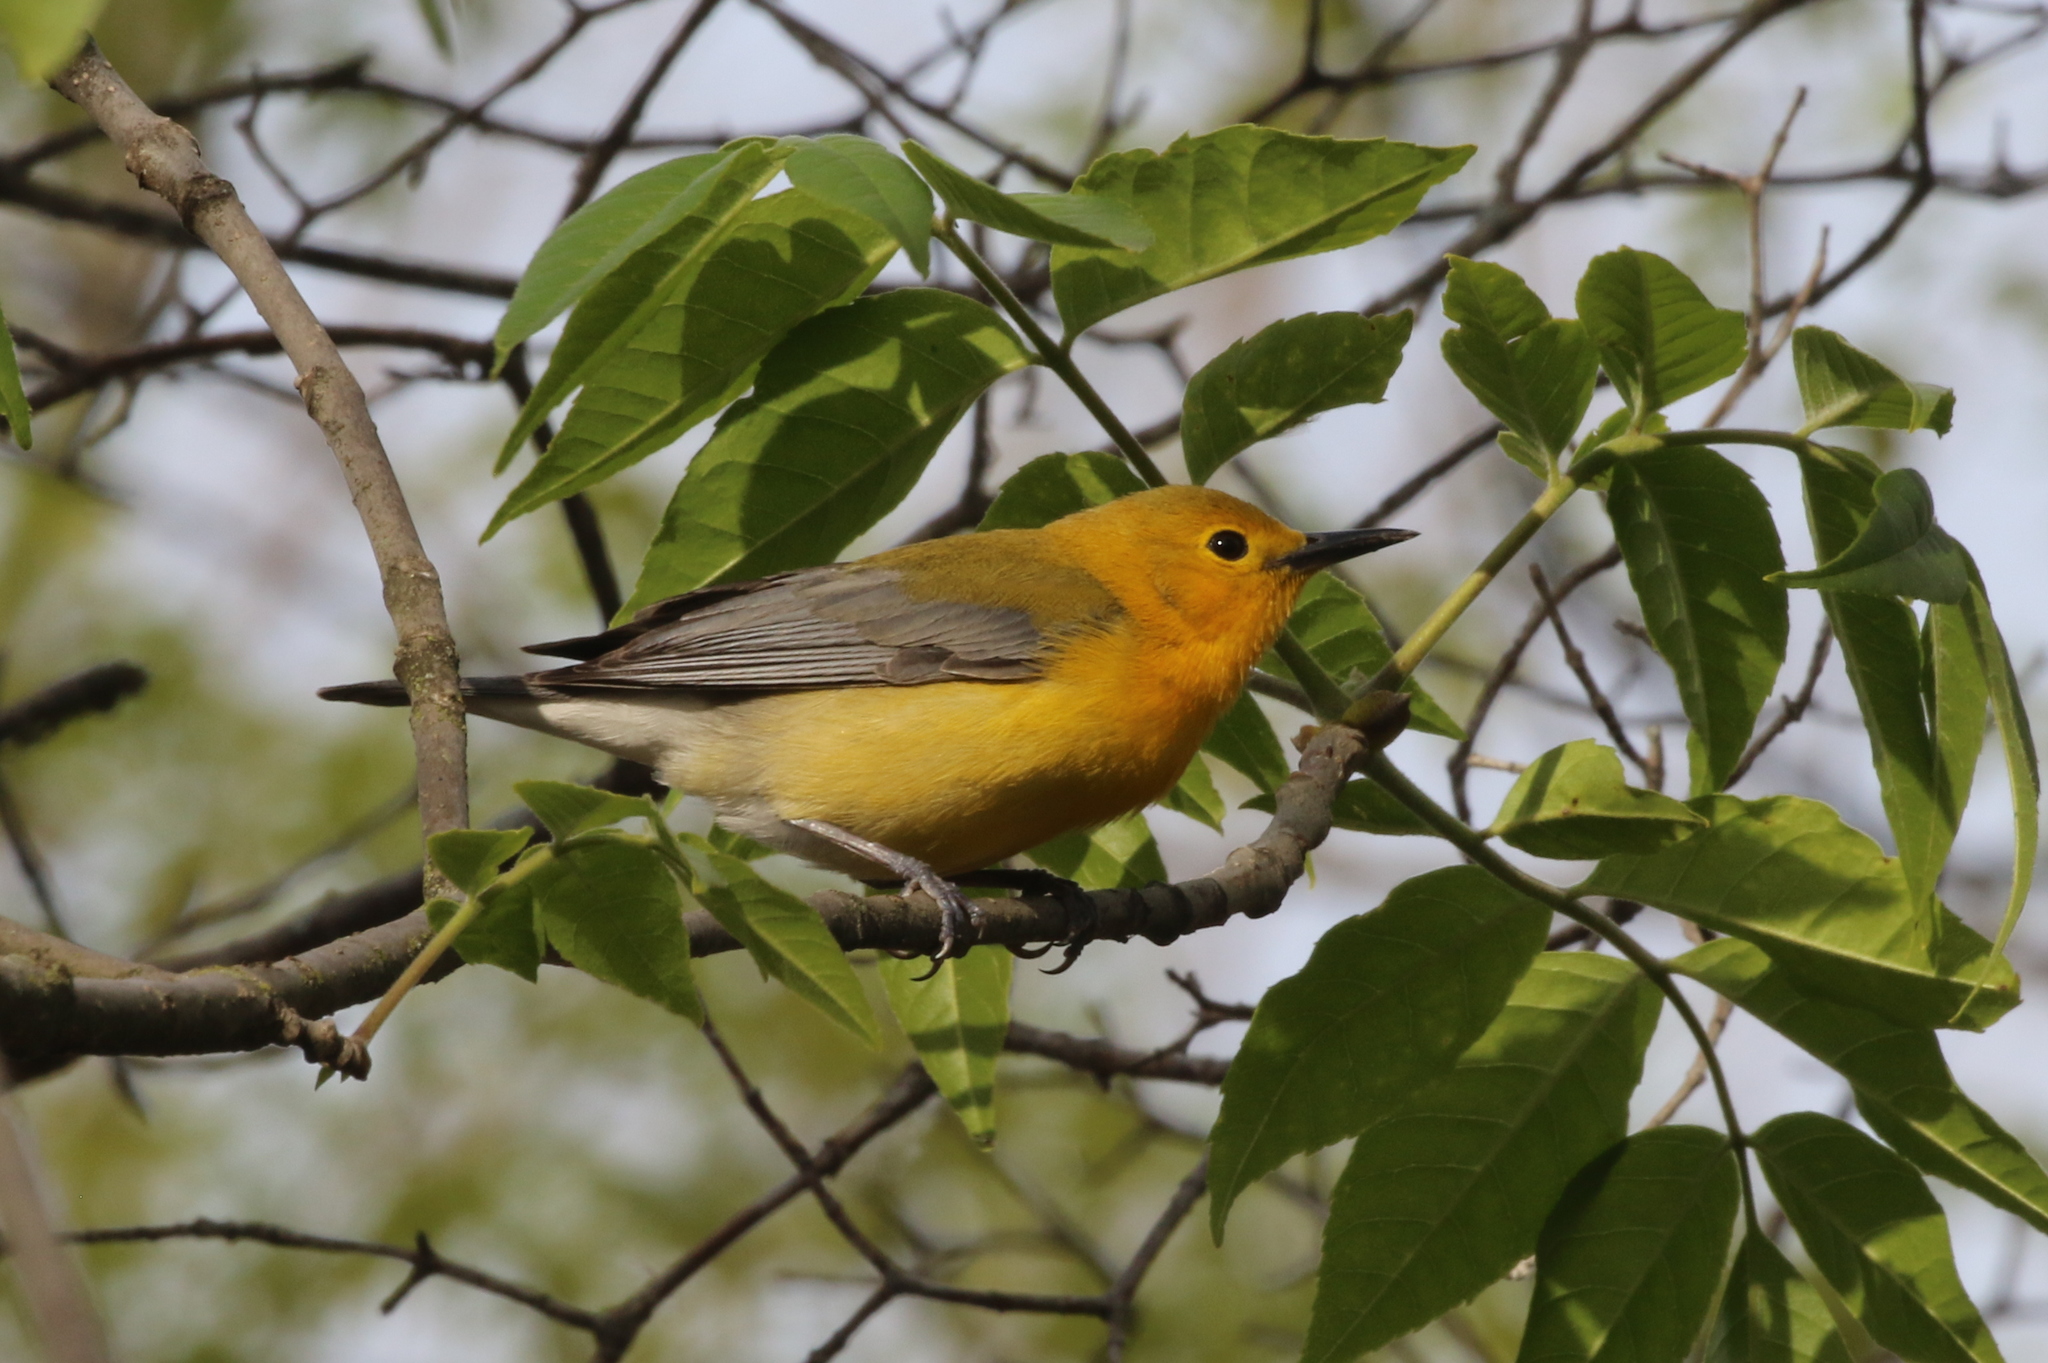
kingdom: Animalia
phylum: Chordata
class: Aves
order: Passeriformes
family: Parulidae
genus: Protonotaria
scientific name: Protonotaria citrea
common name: Prothonotary warbler
